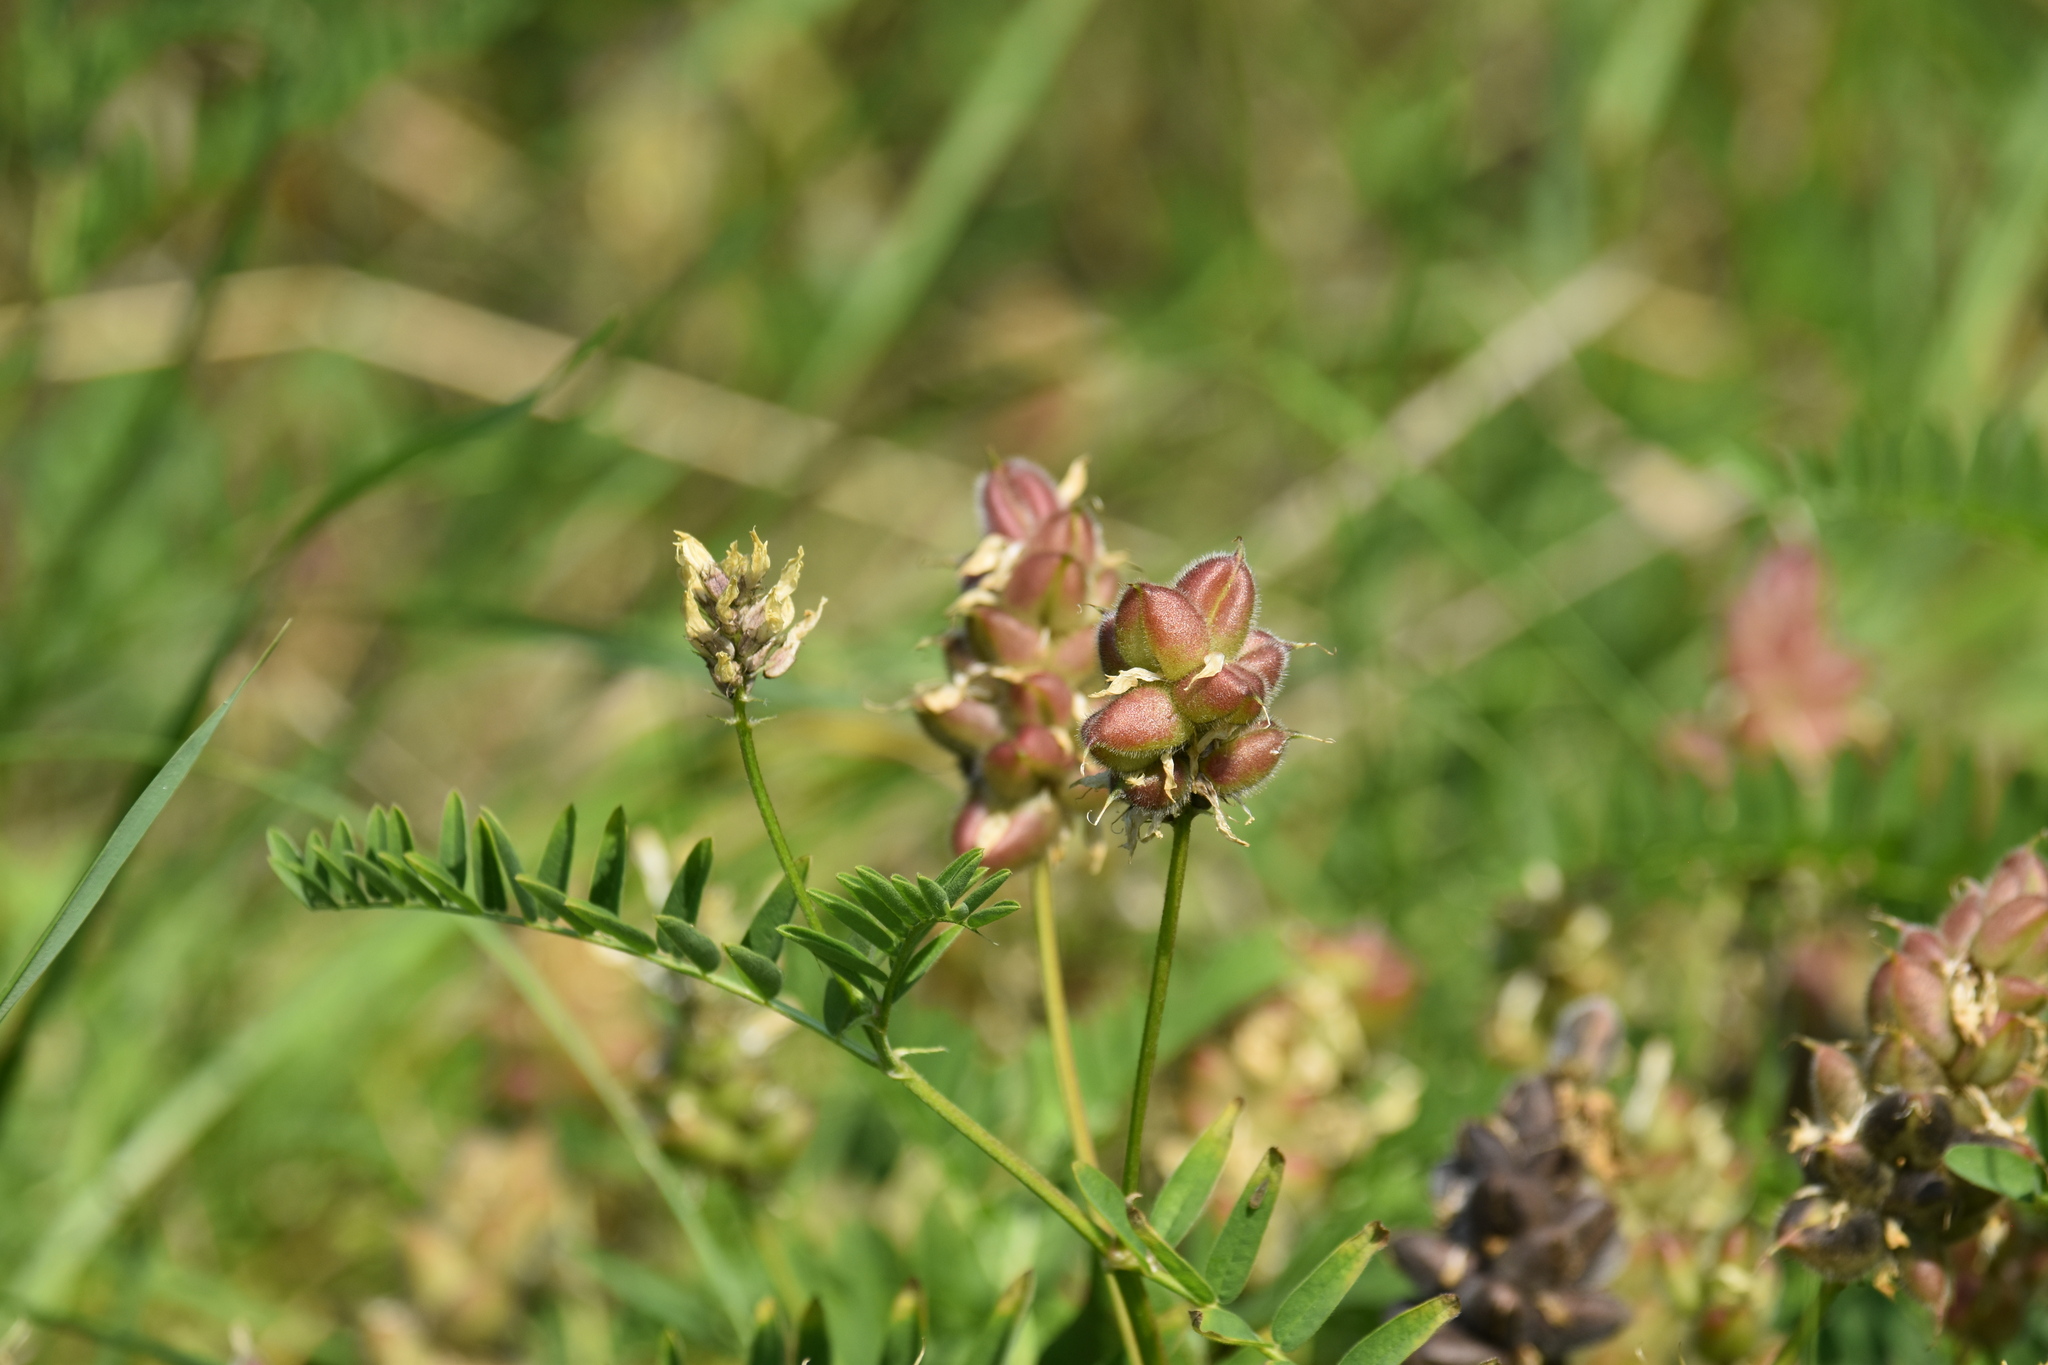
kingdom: Plantae
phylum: Tracheophyta
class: Magnoliopsida
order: Fabales
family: Fabaceae
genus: Astragalus
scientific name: Astragalus cicer
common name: Chick-pea milk-vetch
